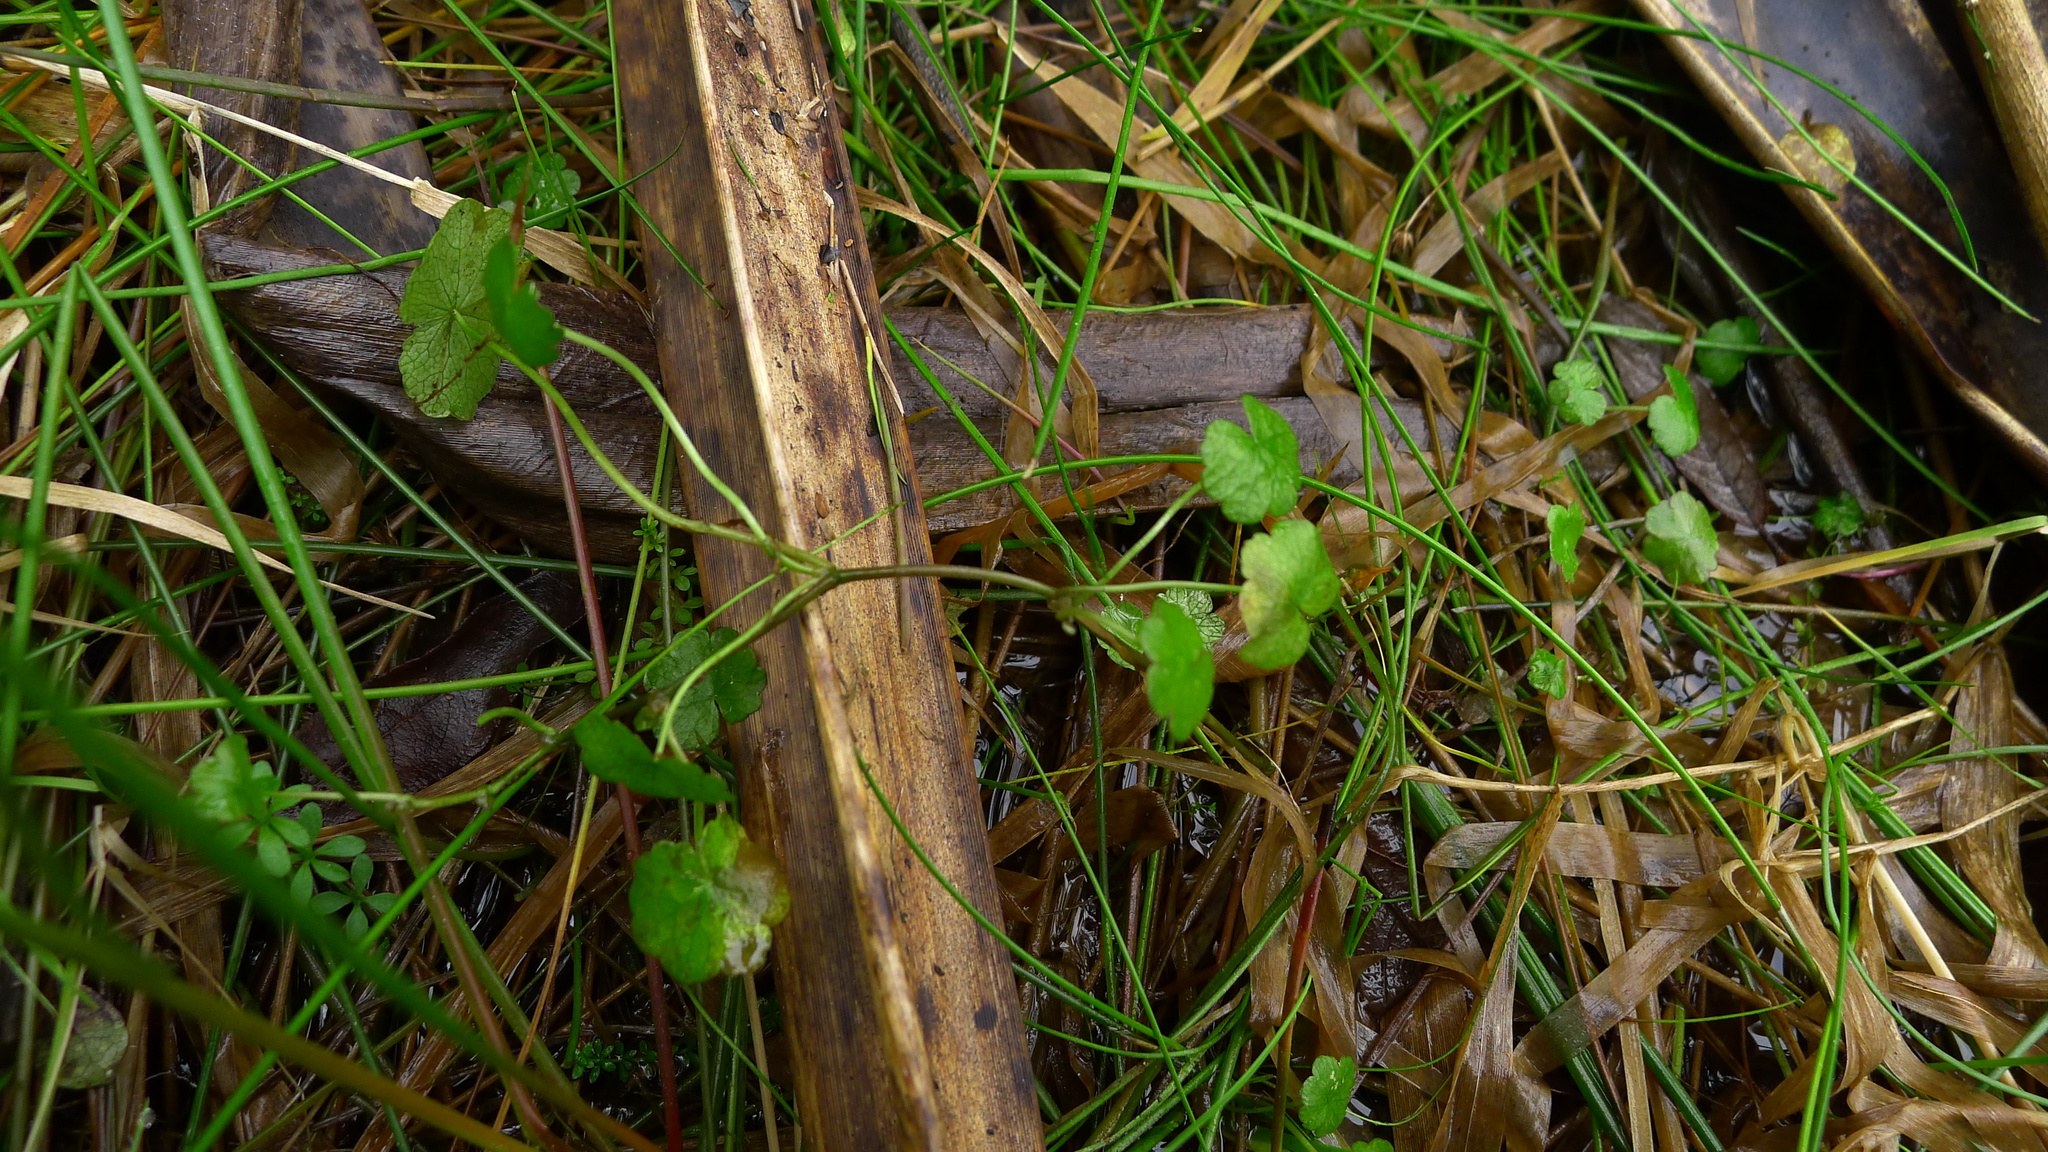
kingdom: Plantae
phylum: Tracheophyta
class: Magnoliopsida
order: Apiales
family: Araliaceae
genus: Hydrocotyle
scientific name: Hydrocotyle pterocarpa
